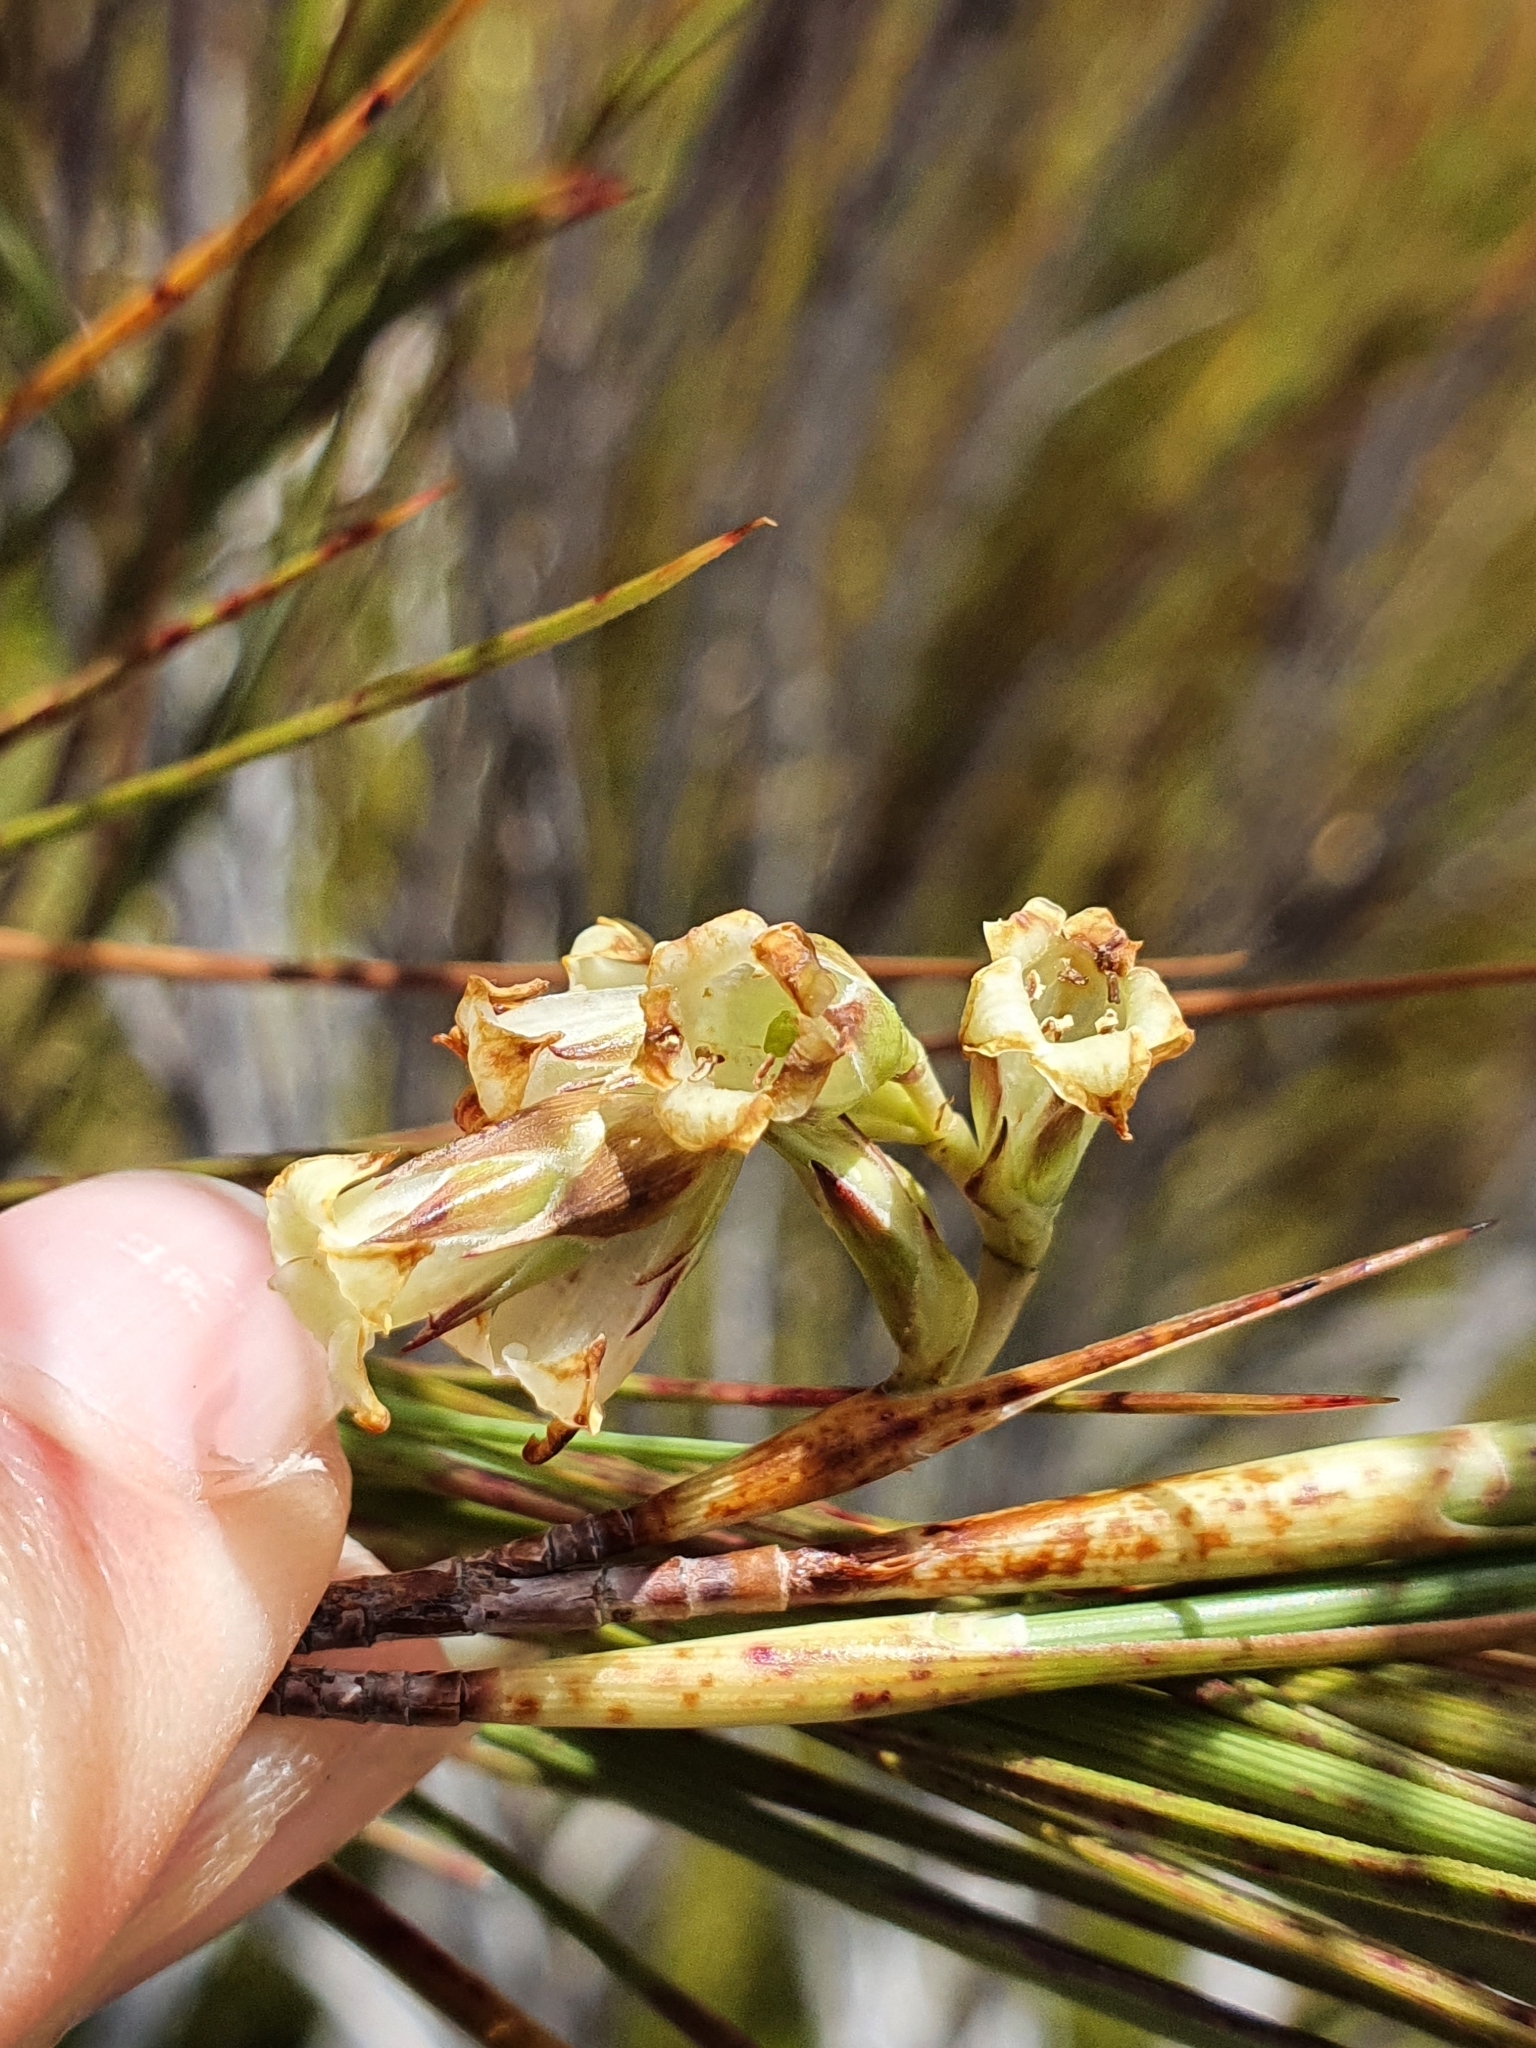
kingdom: Plantae
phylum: Tracheophyta
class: Magnoliopsida
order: Ericales
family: Ericaceae
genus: Dracophyllum
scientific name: Dracophyllum longifolium
